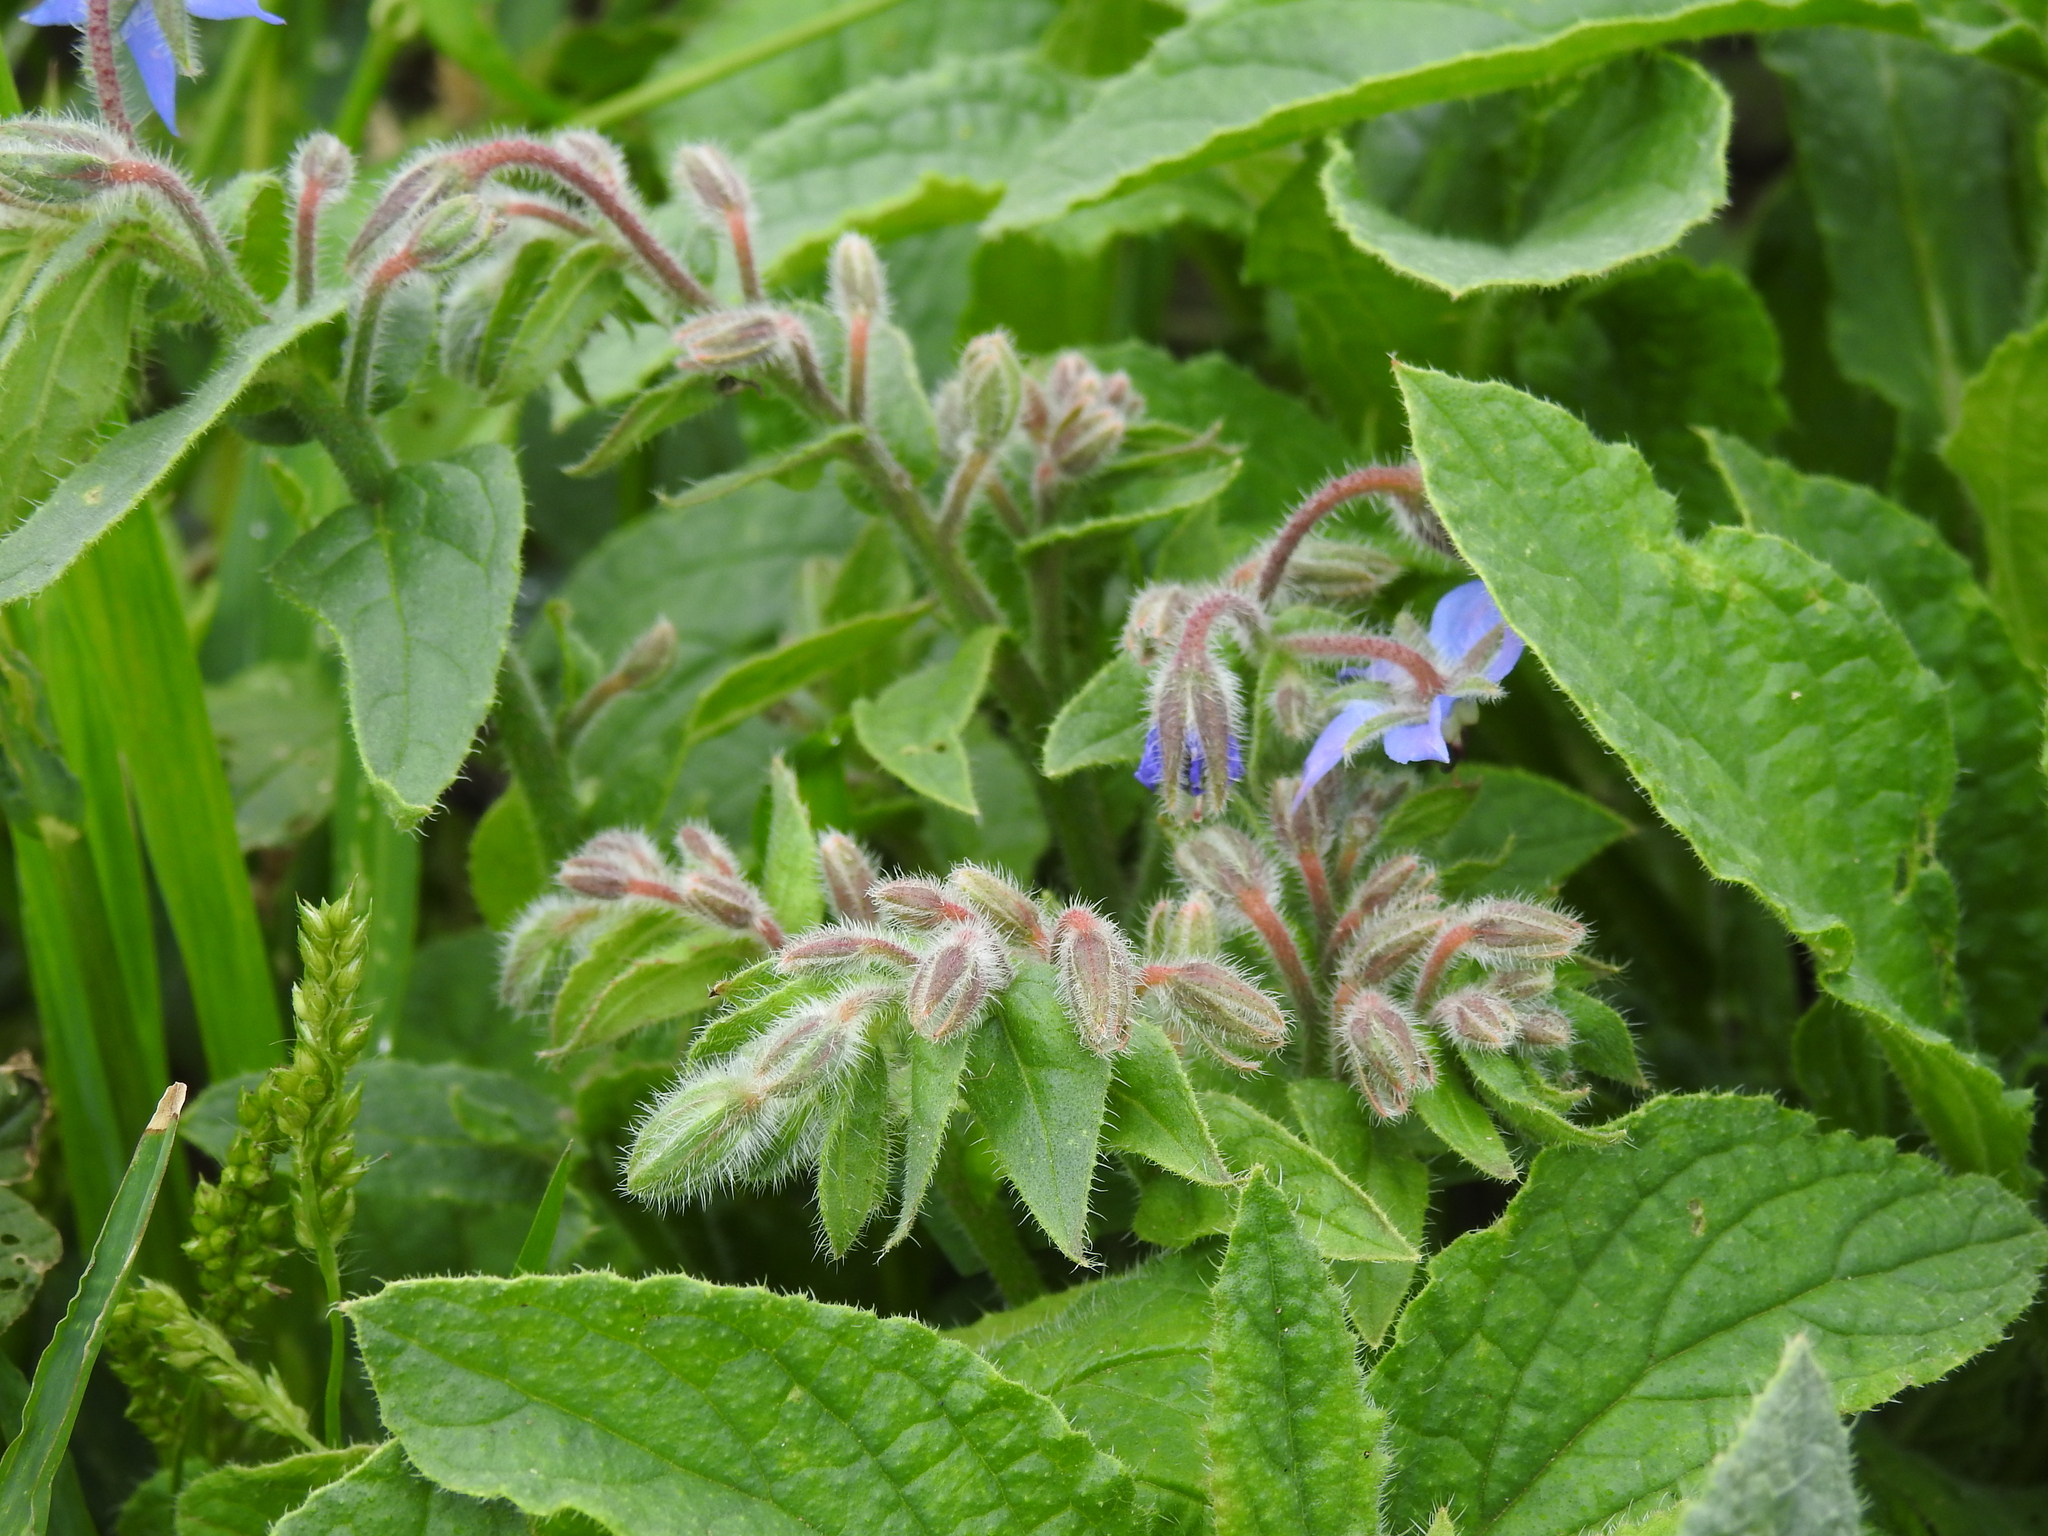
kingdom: Plantae
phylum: Tracheophyta
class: Magnoliopsida
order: Boraginales
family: Boraginaceae
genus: Borago
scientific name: Borago officinalis
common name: Borage
